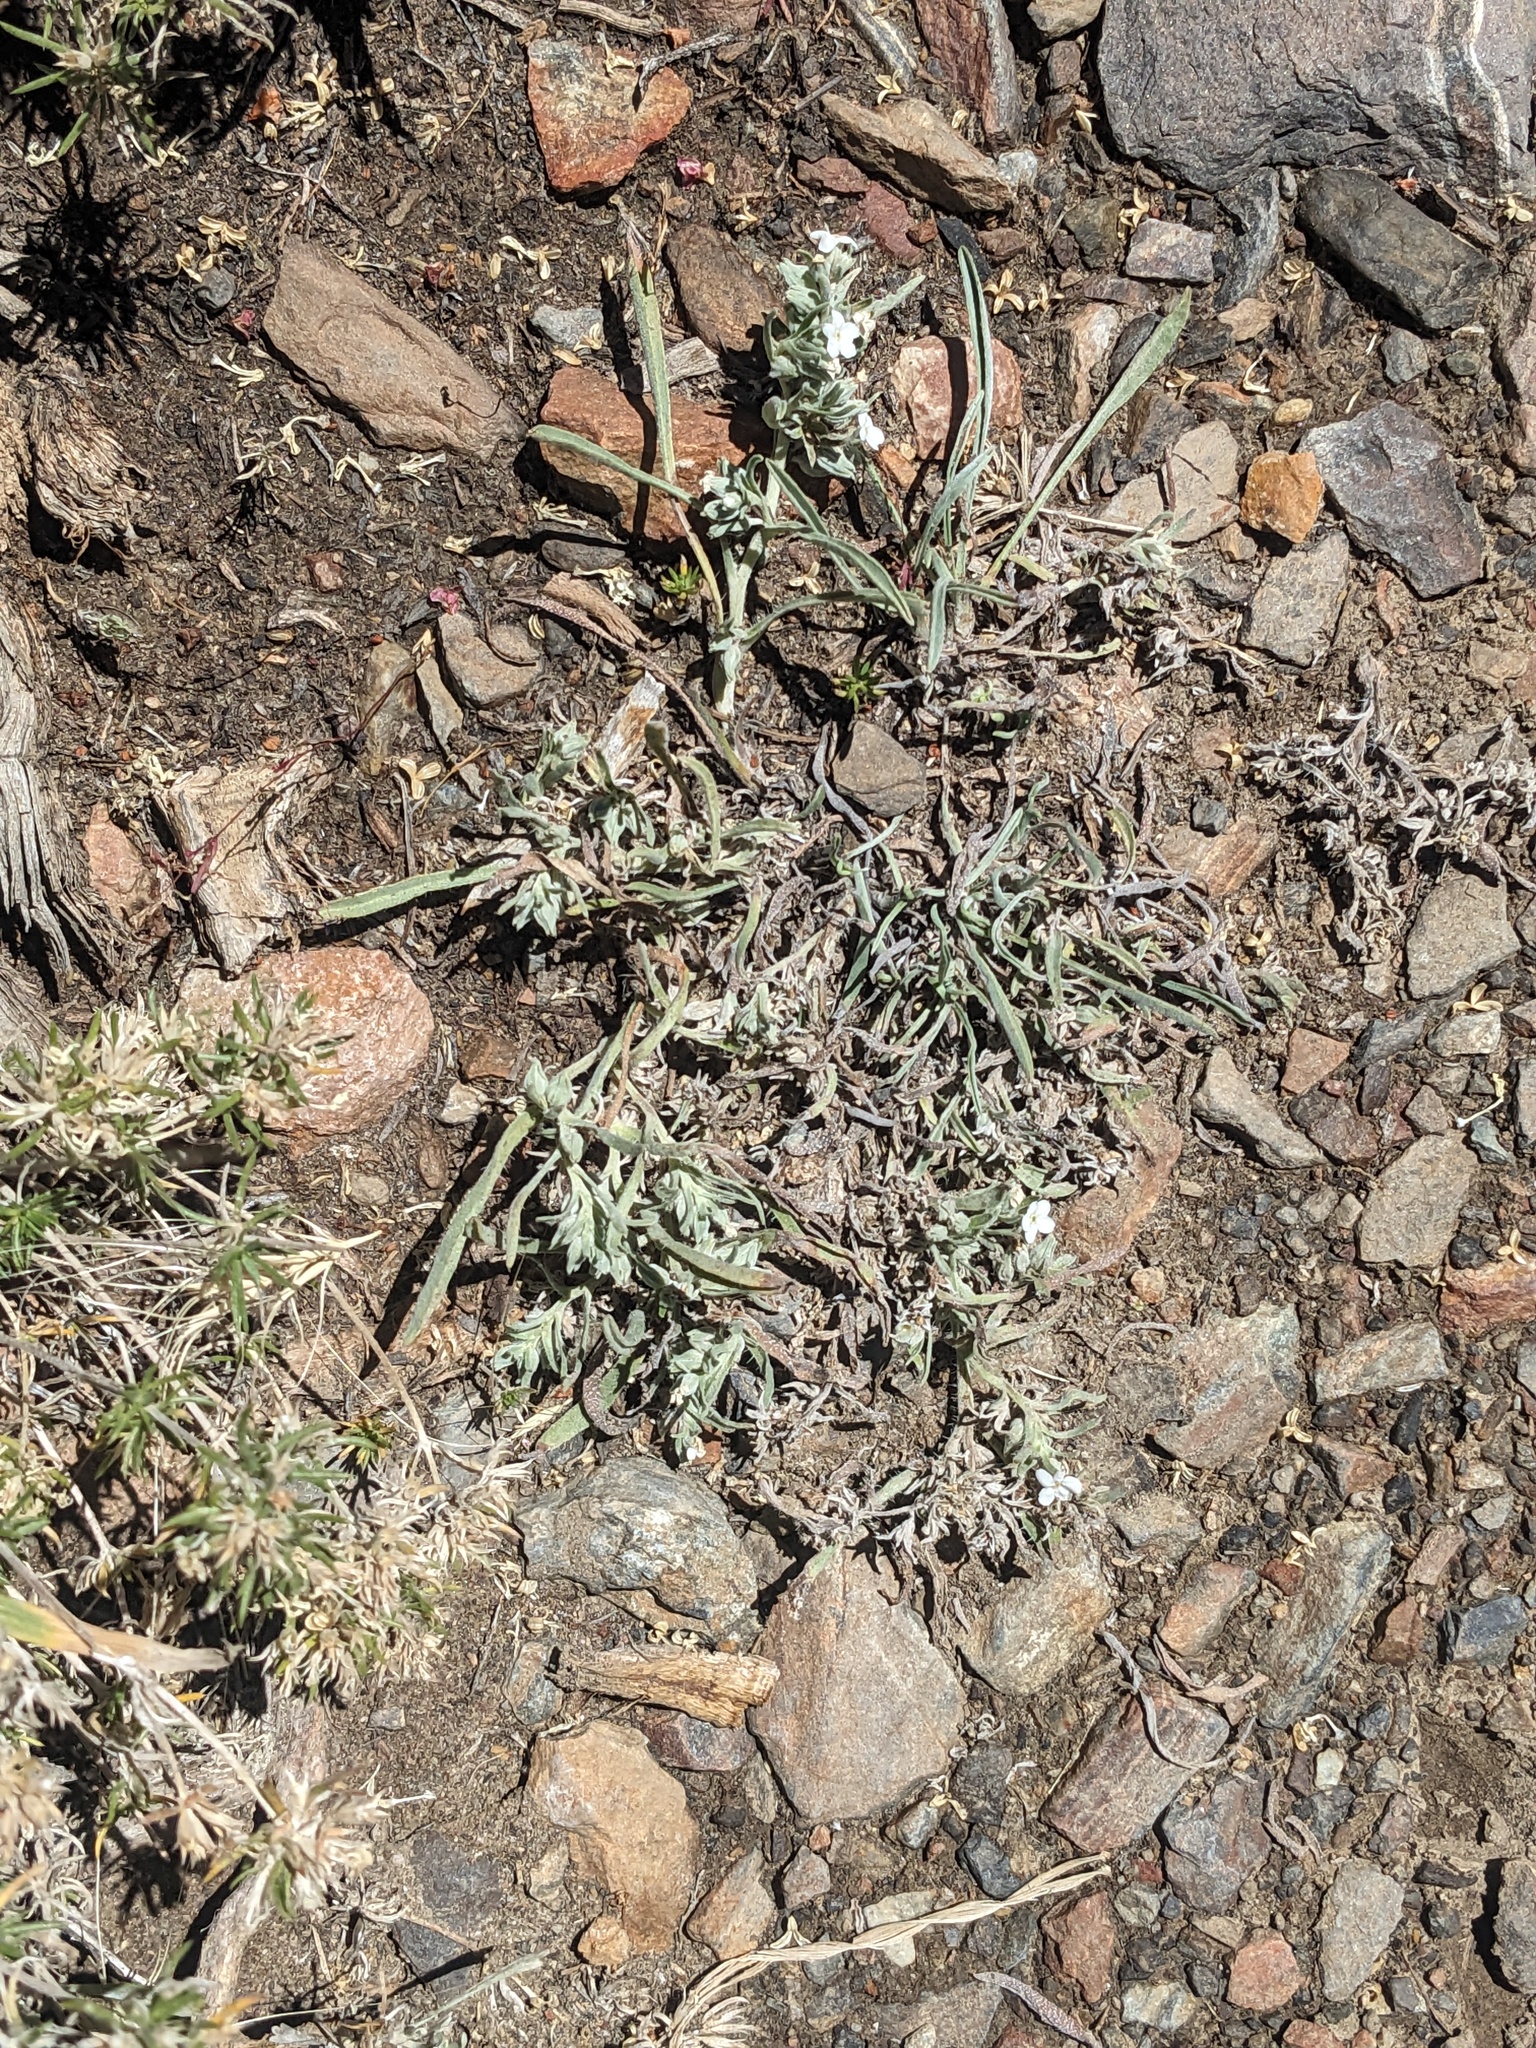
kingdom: Plantae
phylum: Tracheophyta
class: Magnoliopsida
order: Boraginales
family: Boraginaceae
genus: Oreocarya
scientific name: Oreocarya abortiva
